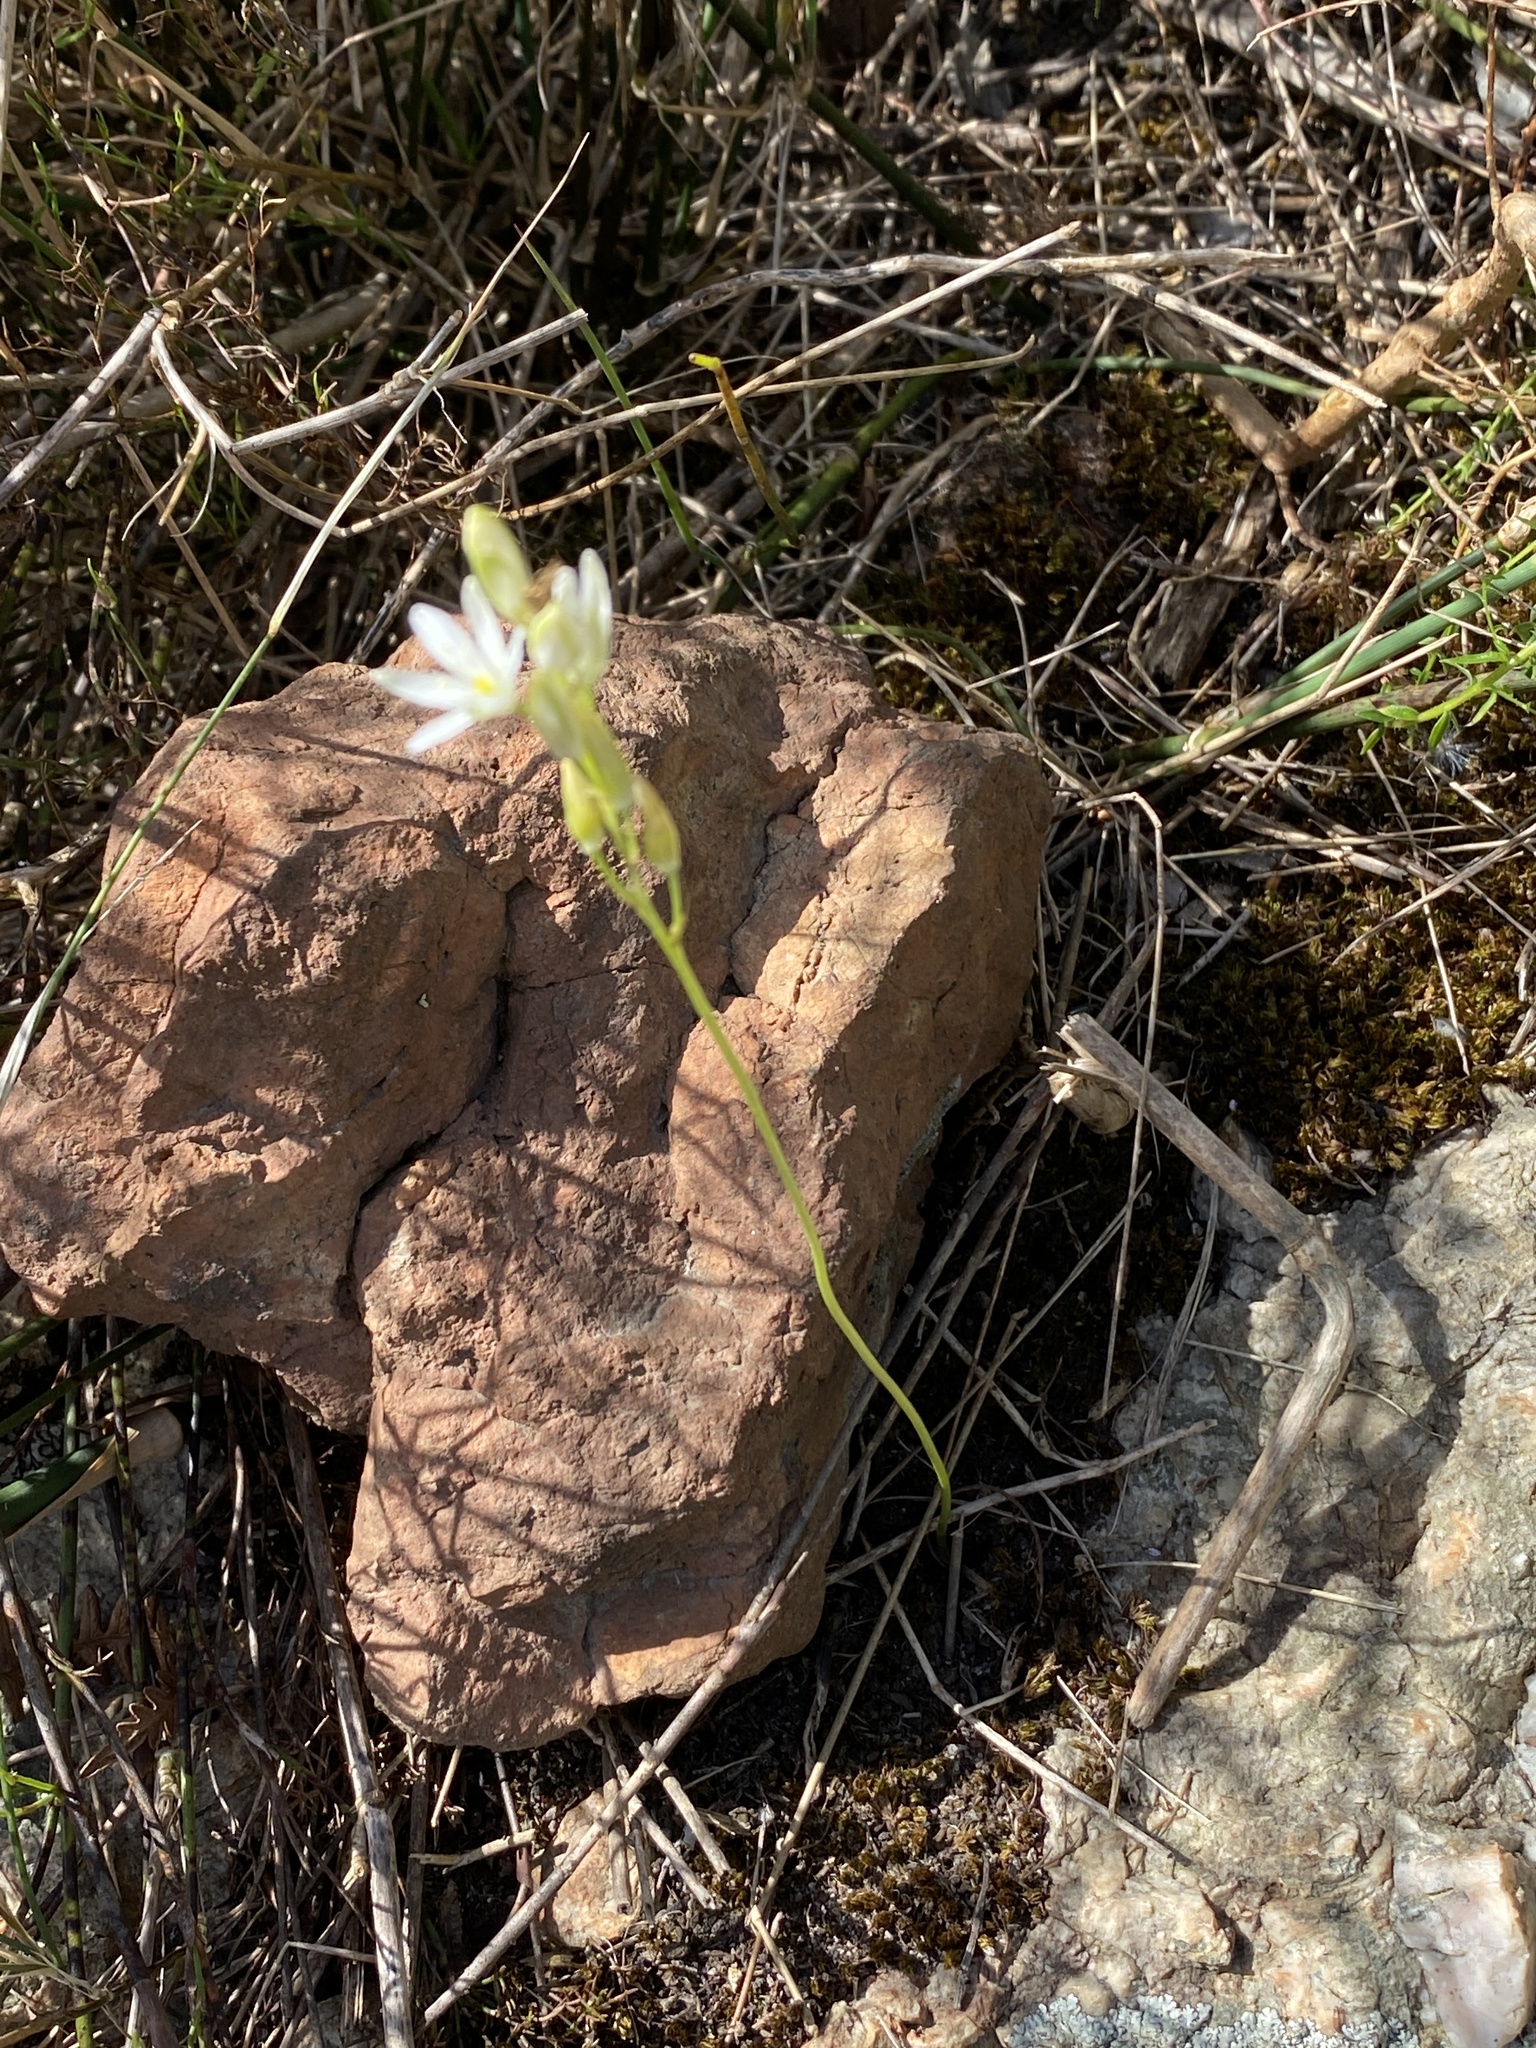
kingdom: Plantae
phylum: Tracheophyta
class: Liliopsida
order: Asparagales
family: Asparagaceae
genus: Ornithogalum
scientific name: Ornithogalum niveum
